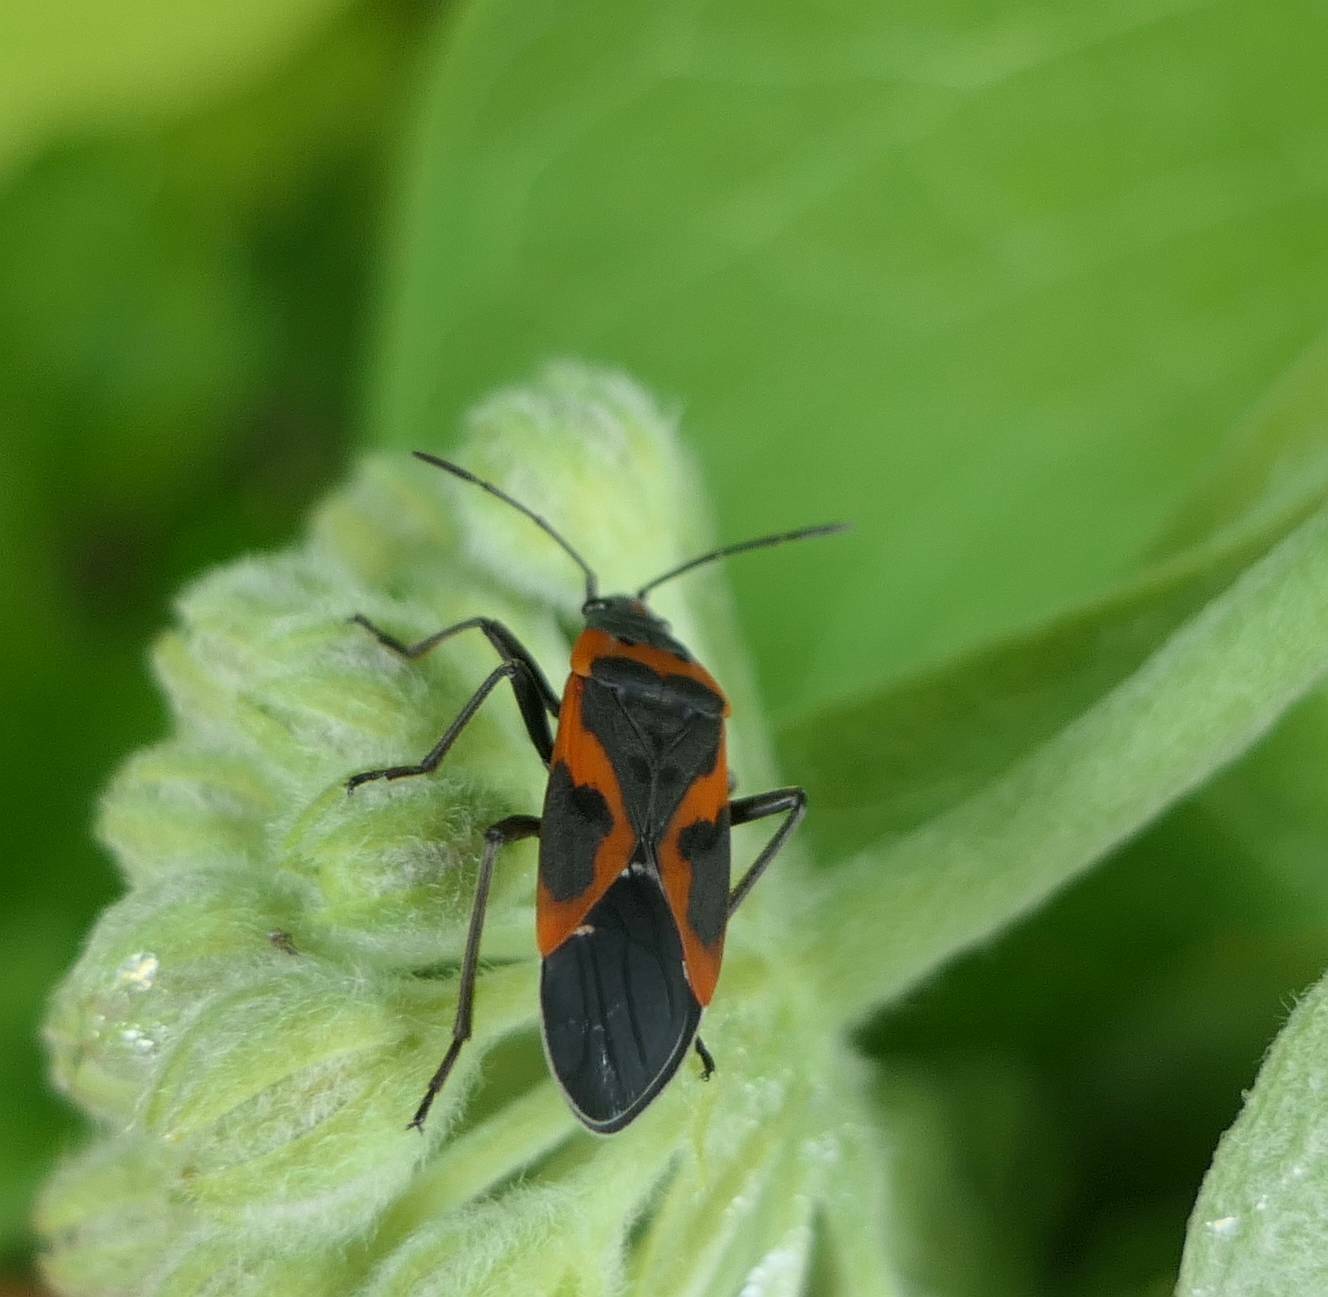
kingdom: Animalia
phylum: Arthropoda
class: Insecta
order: Hemiptera
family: Lygaeidae
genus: Lygaeus
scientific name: Lygaeus kalmii
